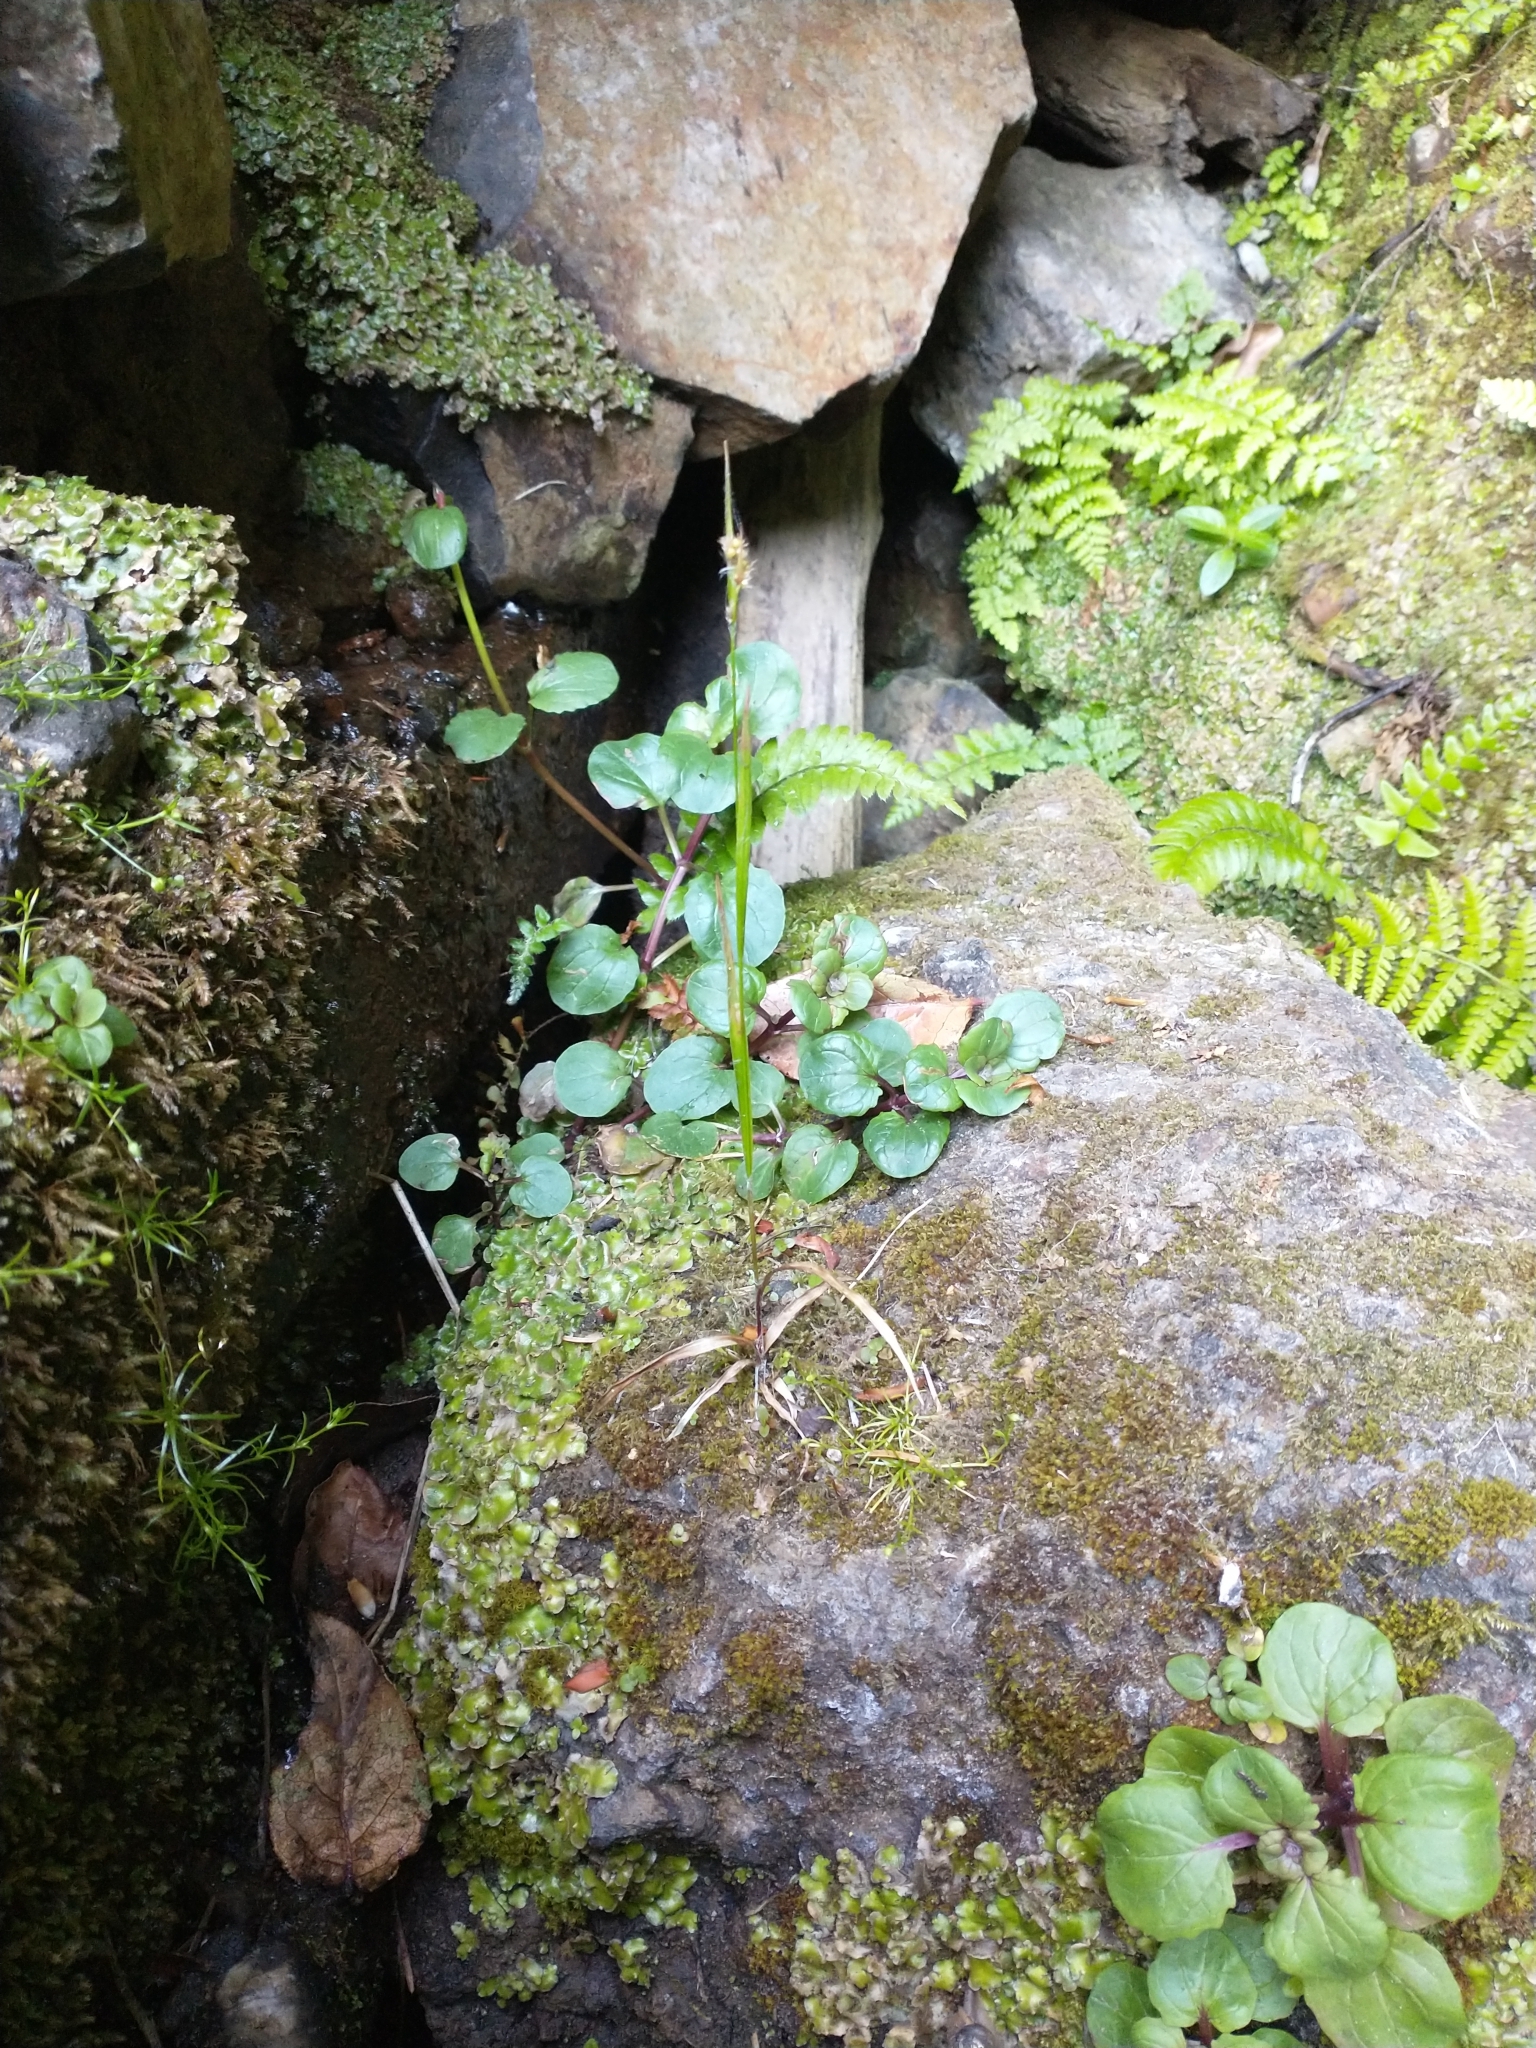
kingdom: Plantae
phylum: Tracheophyta
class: Magnoliopsida
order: Lamiales
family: Phrymaceae
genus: Erythranthe
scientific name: Erythranthe grandis
